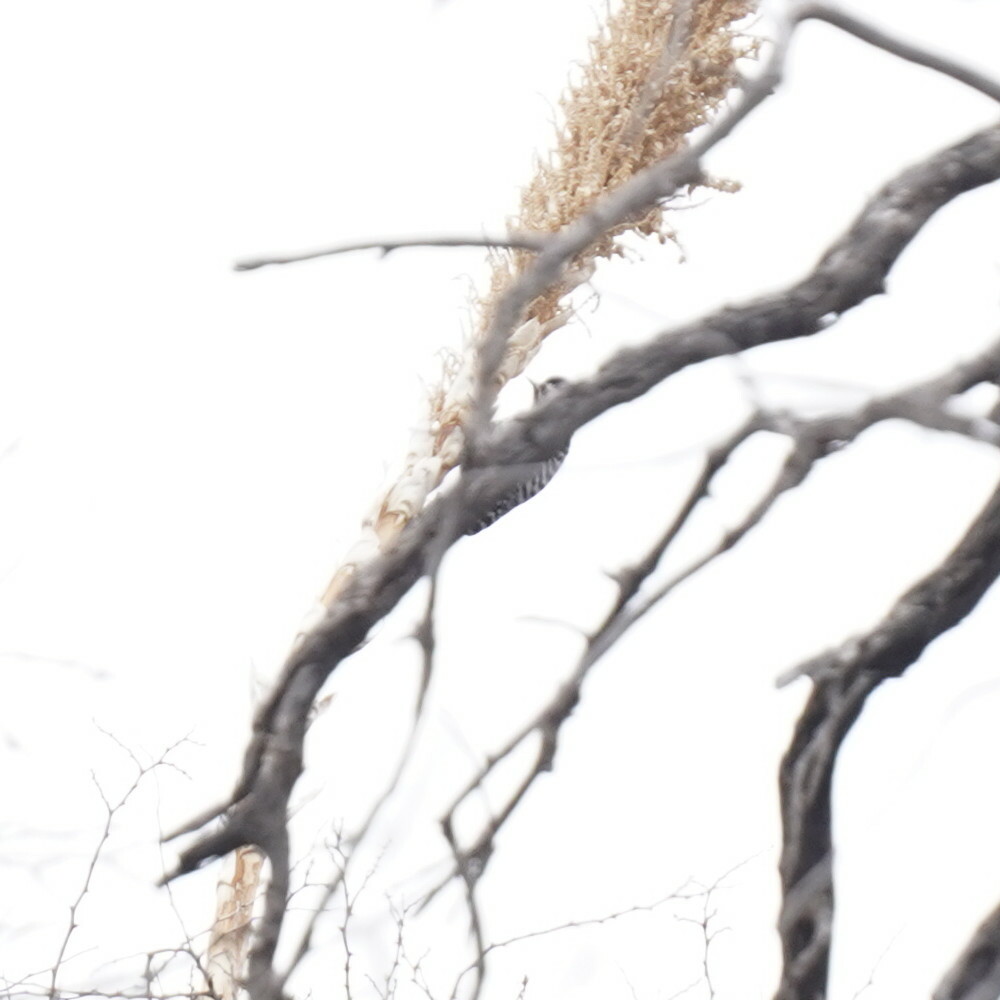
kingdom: Animalia
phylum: Chordata
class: Aves
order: Piciformes
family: Picidae
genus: Dryobates
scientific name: Dryobates scalaris
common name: Ladder-backed woodpecker
